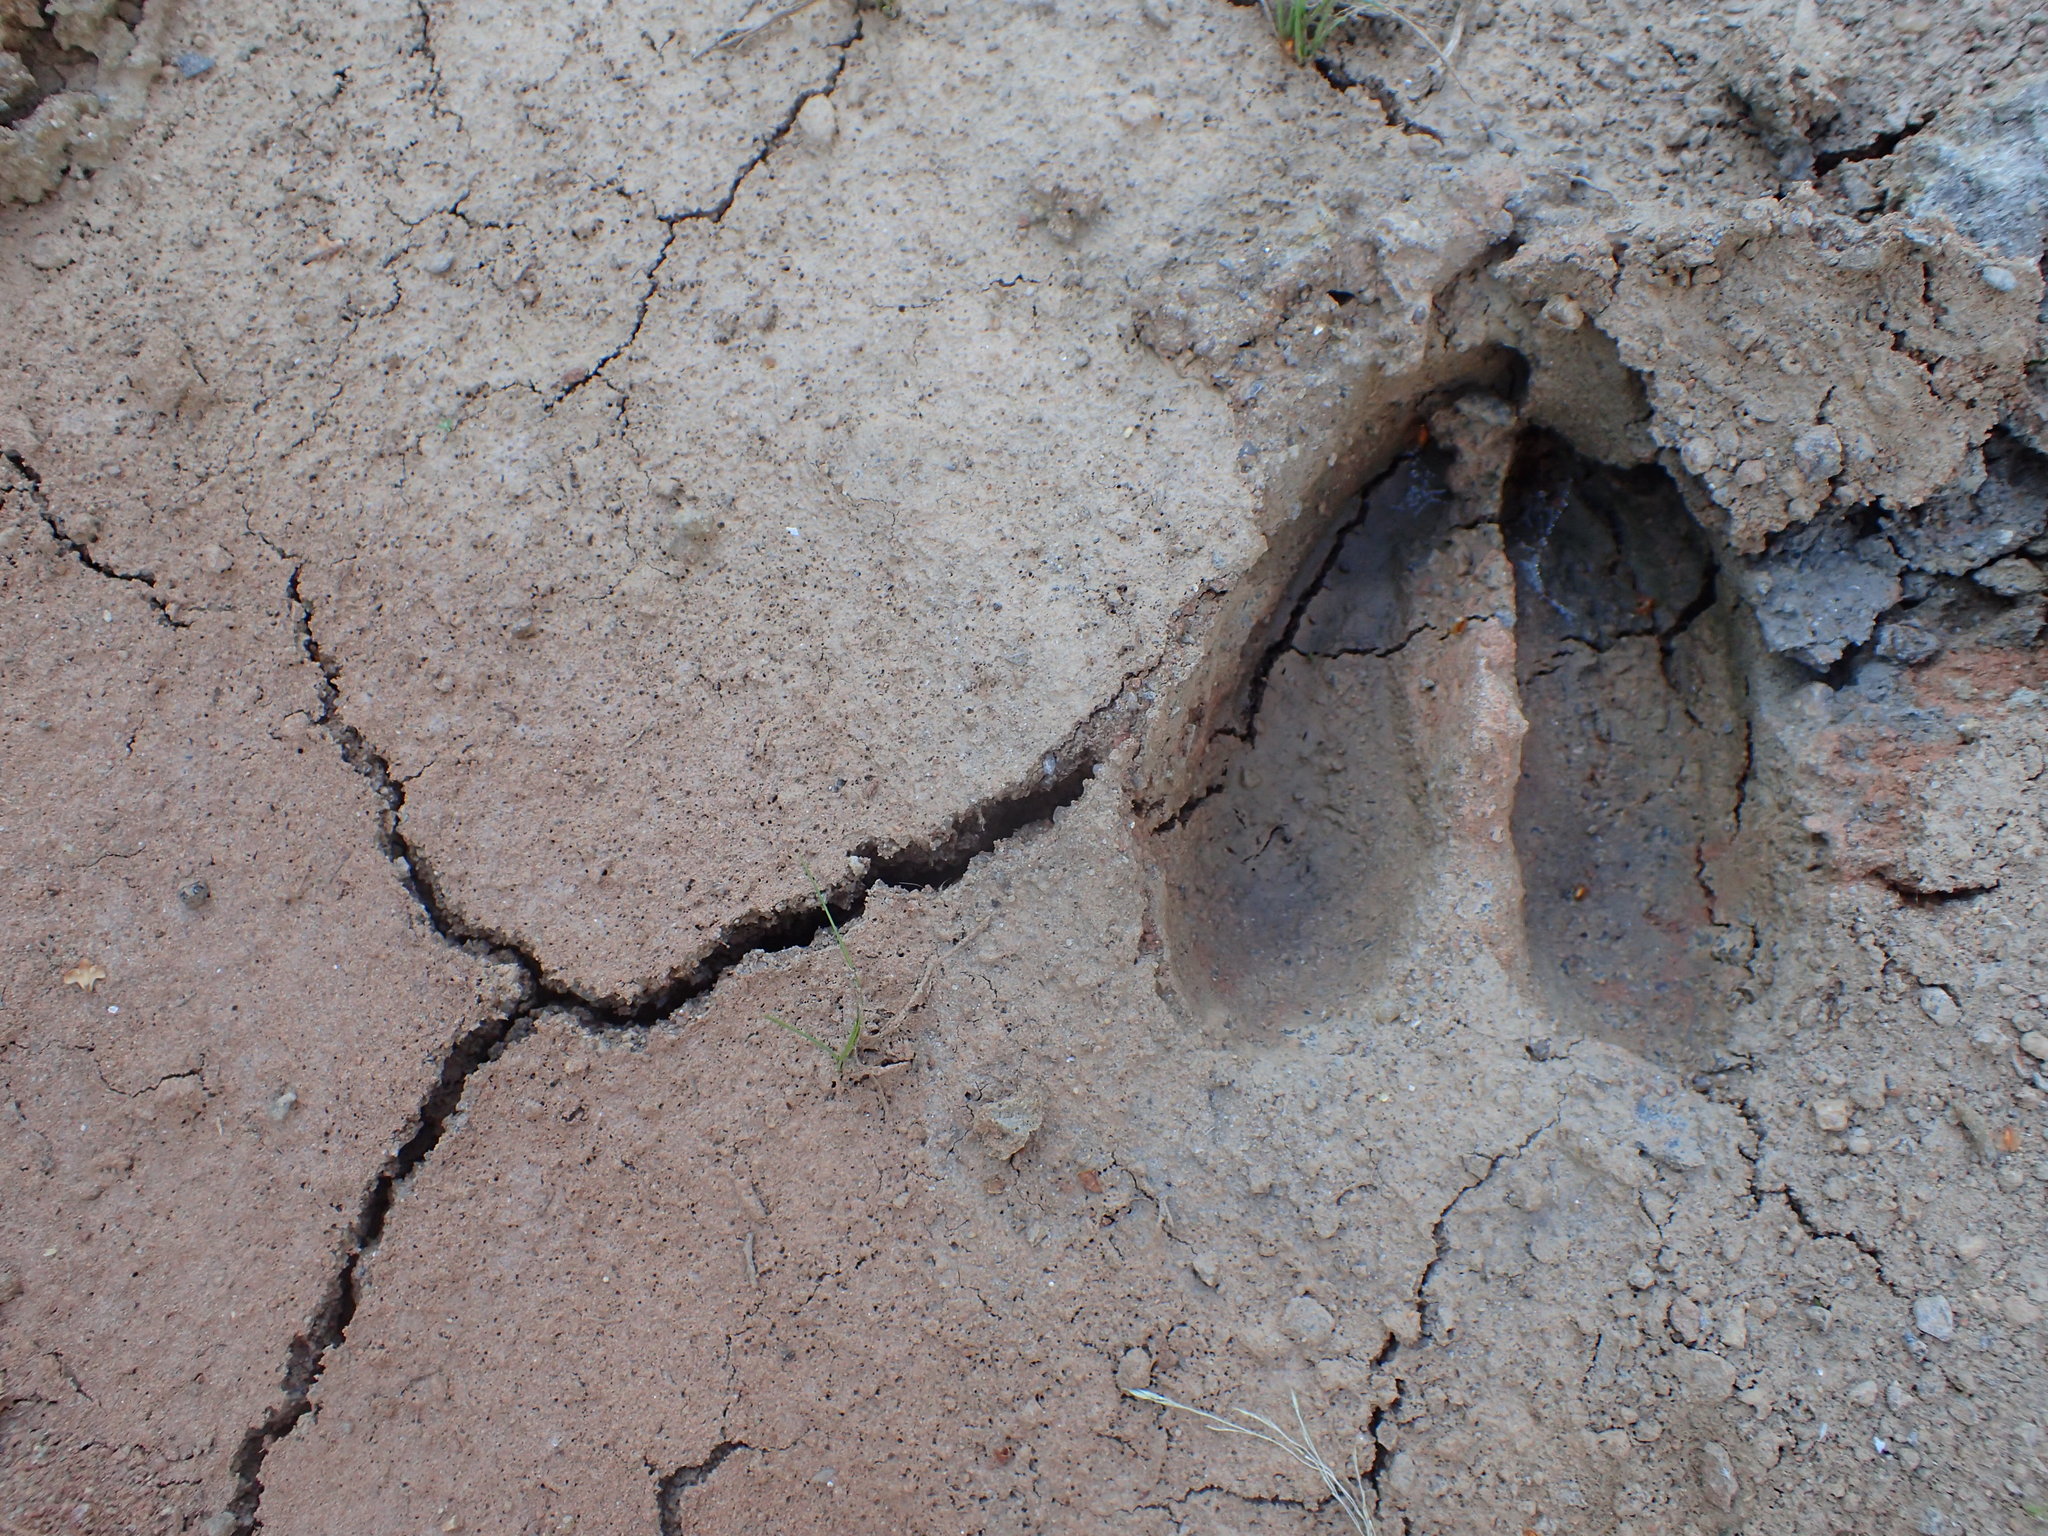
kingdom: Animalia
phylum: Chordata
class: Mammalia
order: Artiodactyla
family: Cervidae
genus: Odocoileus
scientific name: Odocoileus virginianus
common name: White-tailed deer
